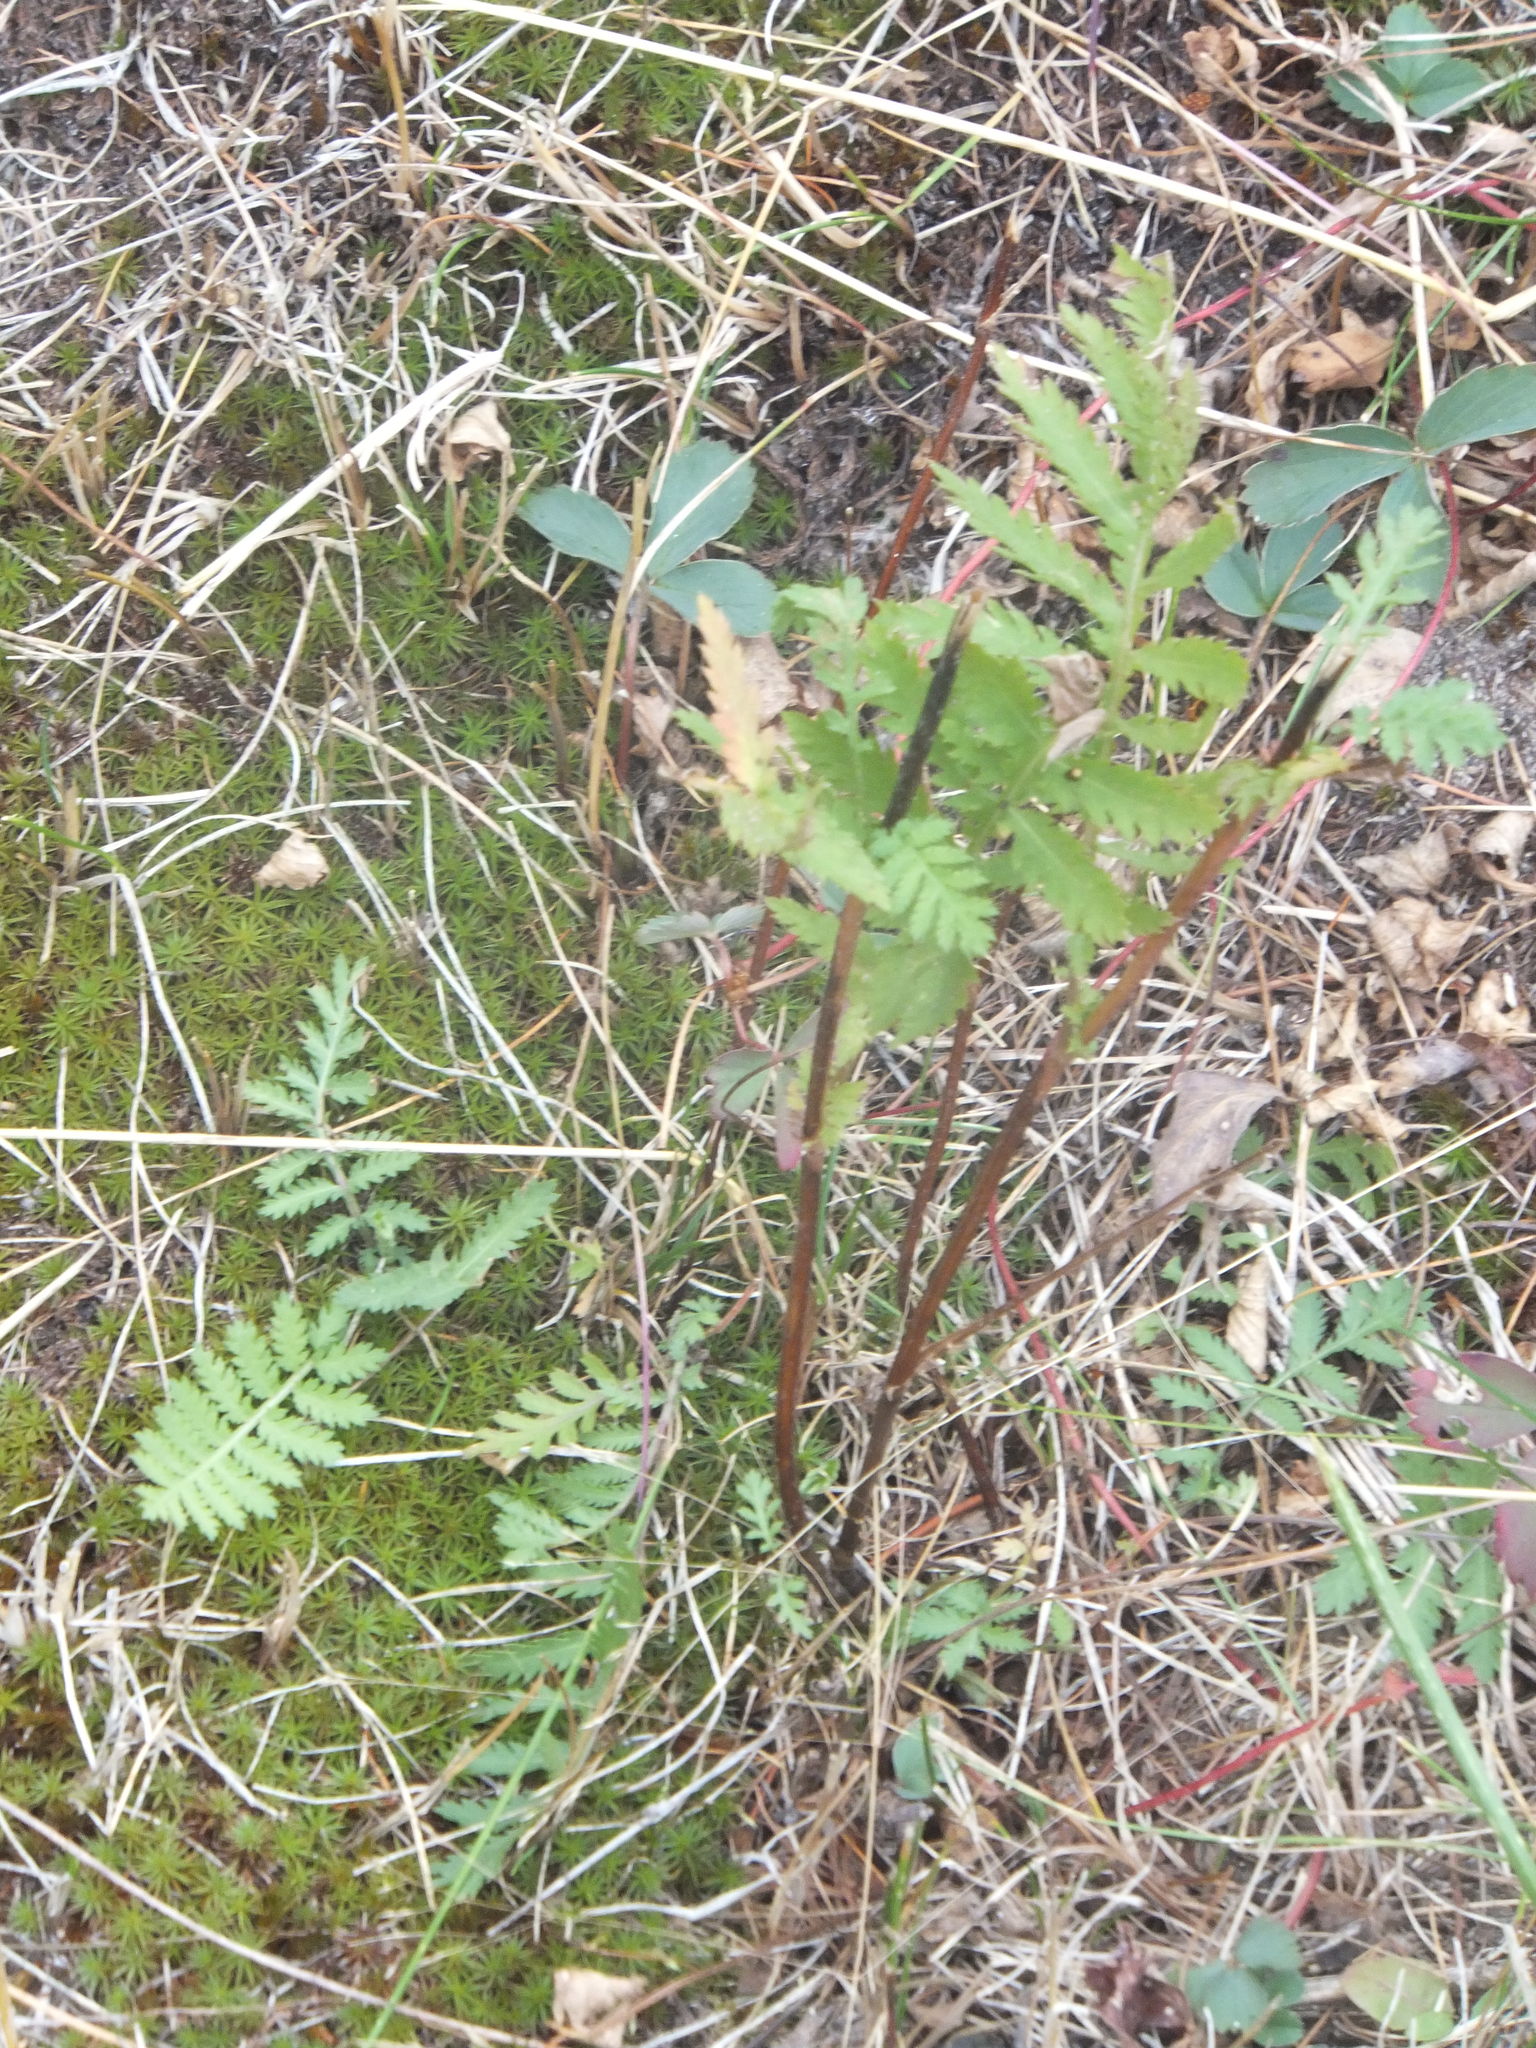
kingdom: Plantae
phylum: Tracheophyta
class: Magnoliopsida
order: Asterales
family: Asteraceae
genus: Tanacetum
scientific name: Tanacetum vulgare
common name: Common tansy
